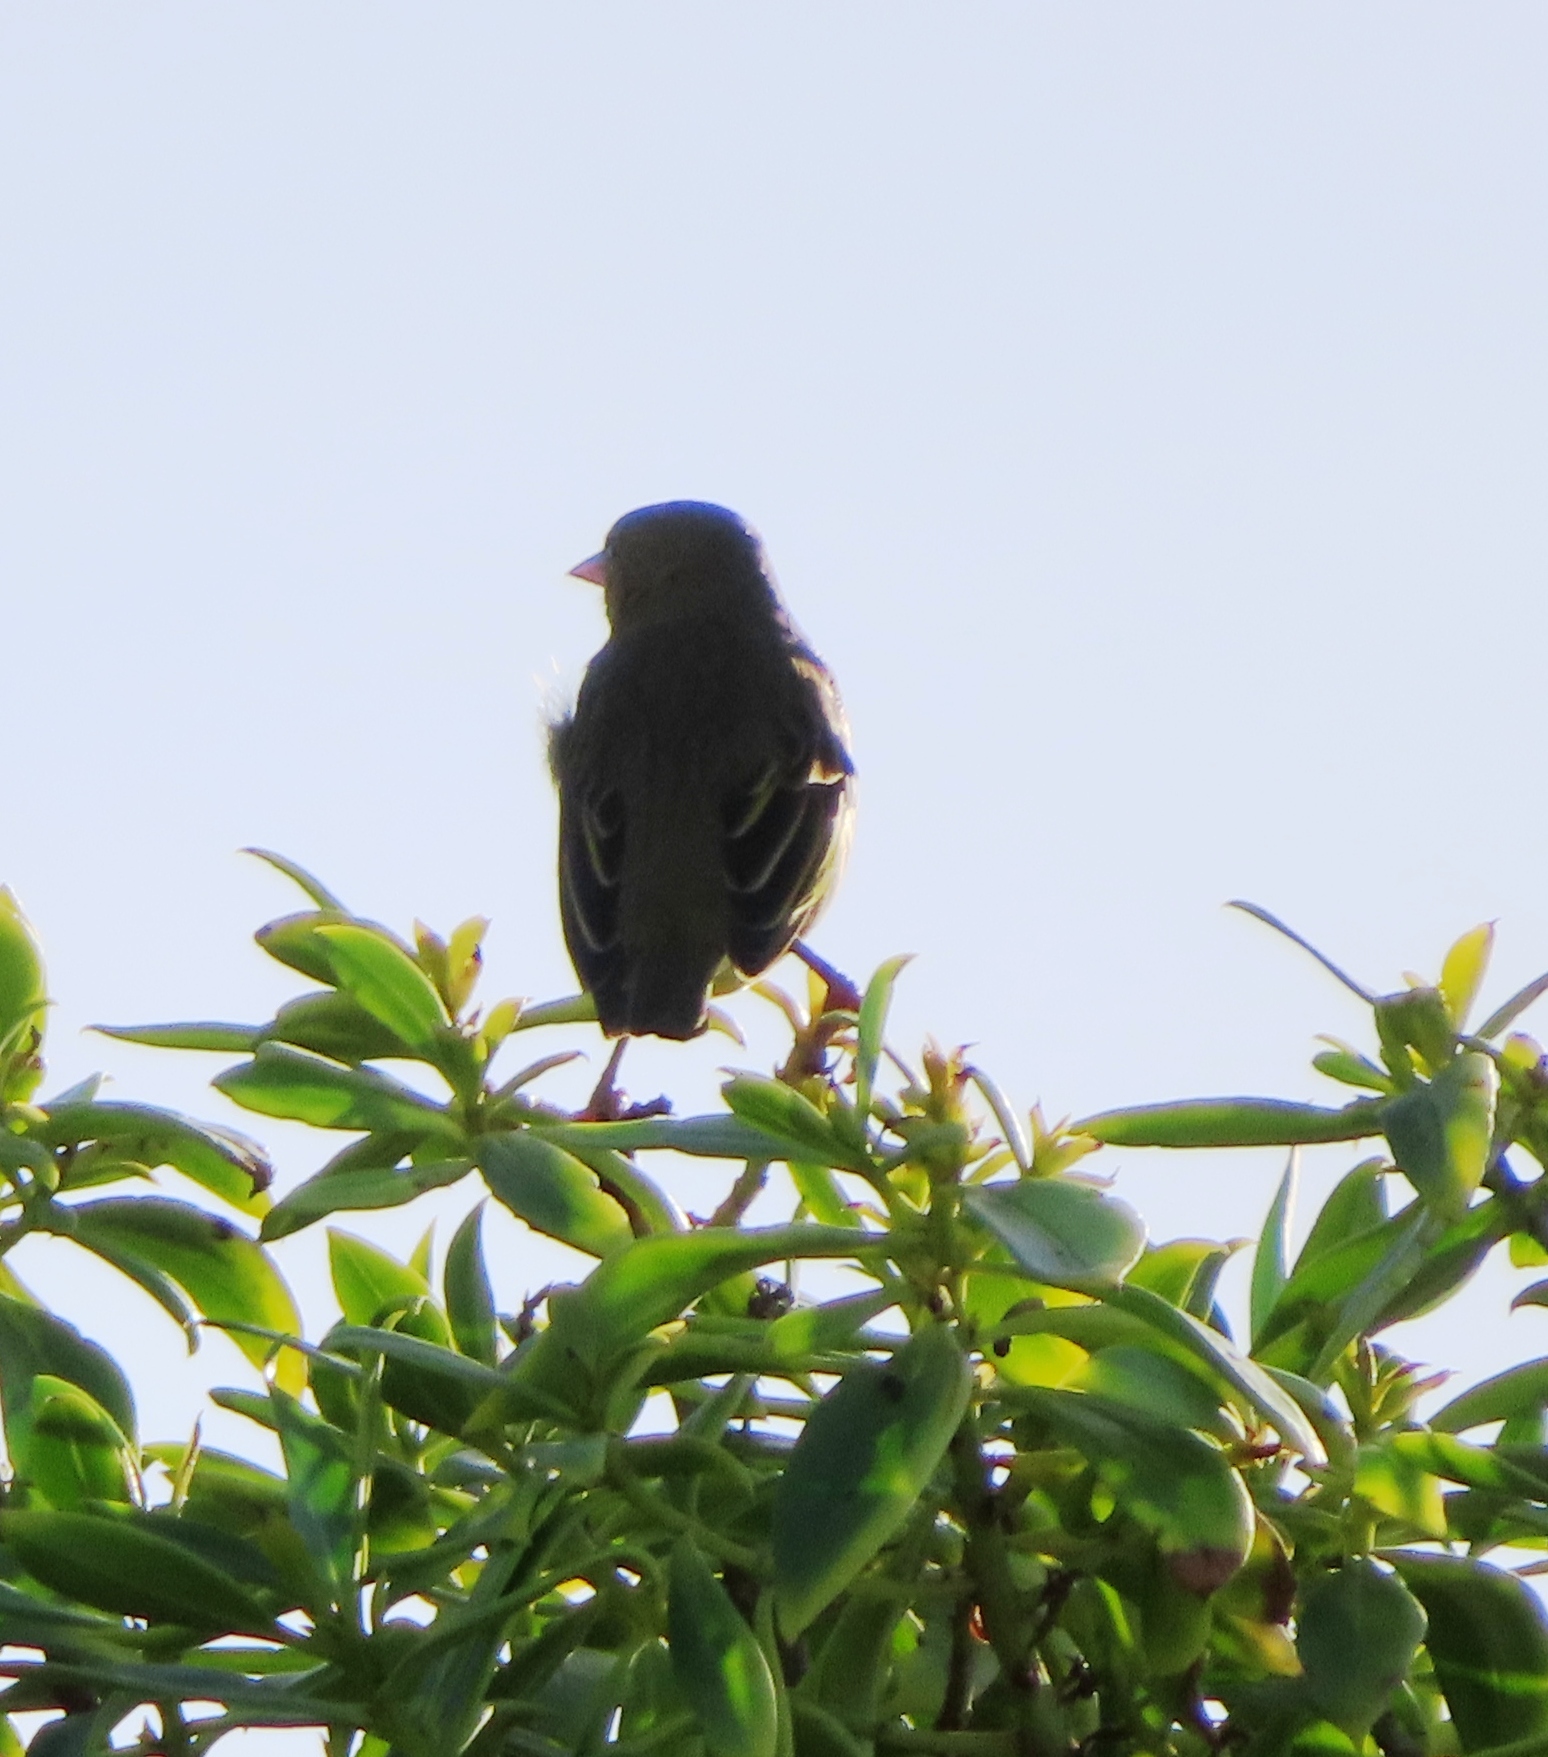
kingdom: Animalia
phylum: Chordata
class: Aves
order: Passeriformes
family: Ploceidae
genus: Ploceus
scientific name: Ploceus capensis
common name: Cape weaver
